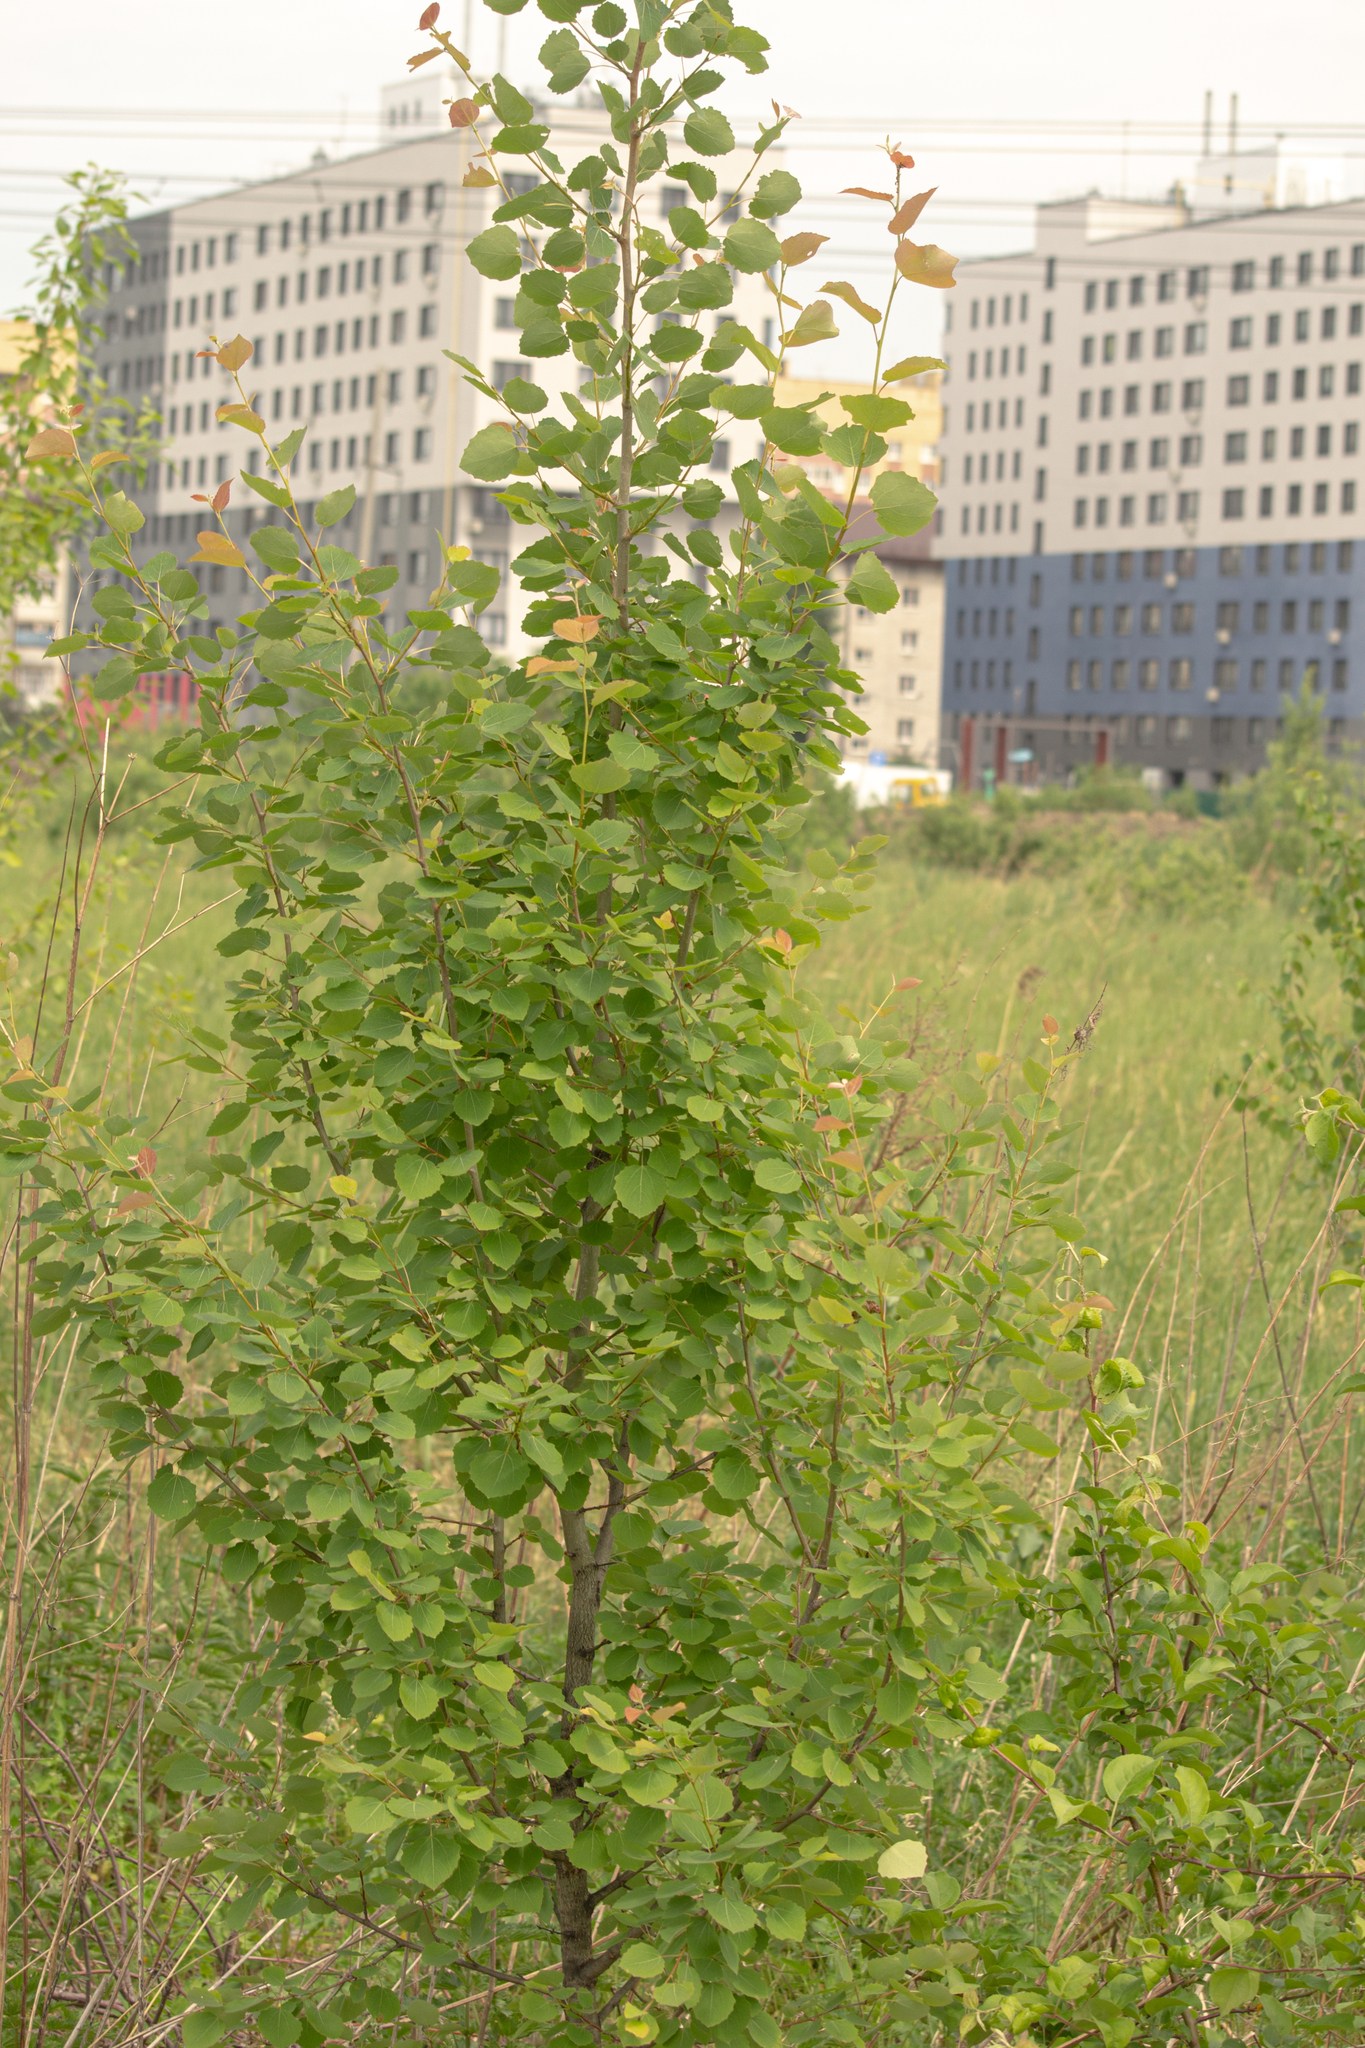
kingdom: Plantae
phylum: Tracheophyta
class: Magnoliopsida
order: Malpighiales
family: Salicaceae
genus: Populus
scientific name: Populus tremula
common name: European aspen
